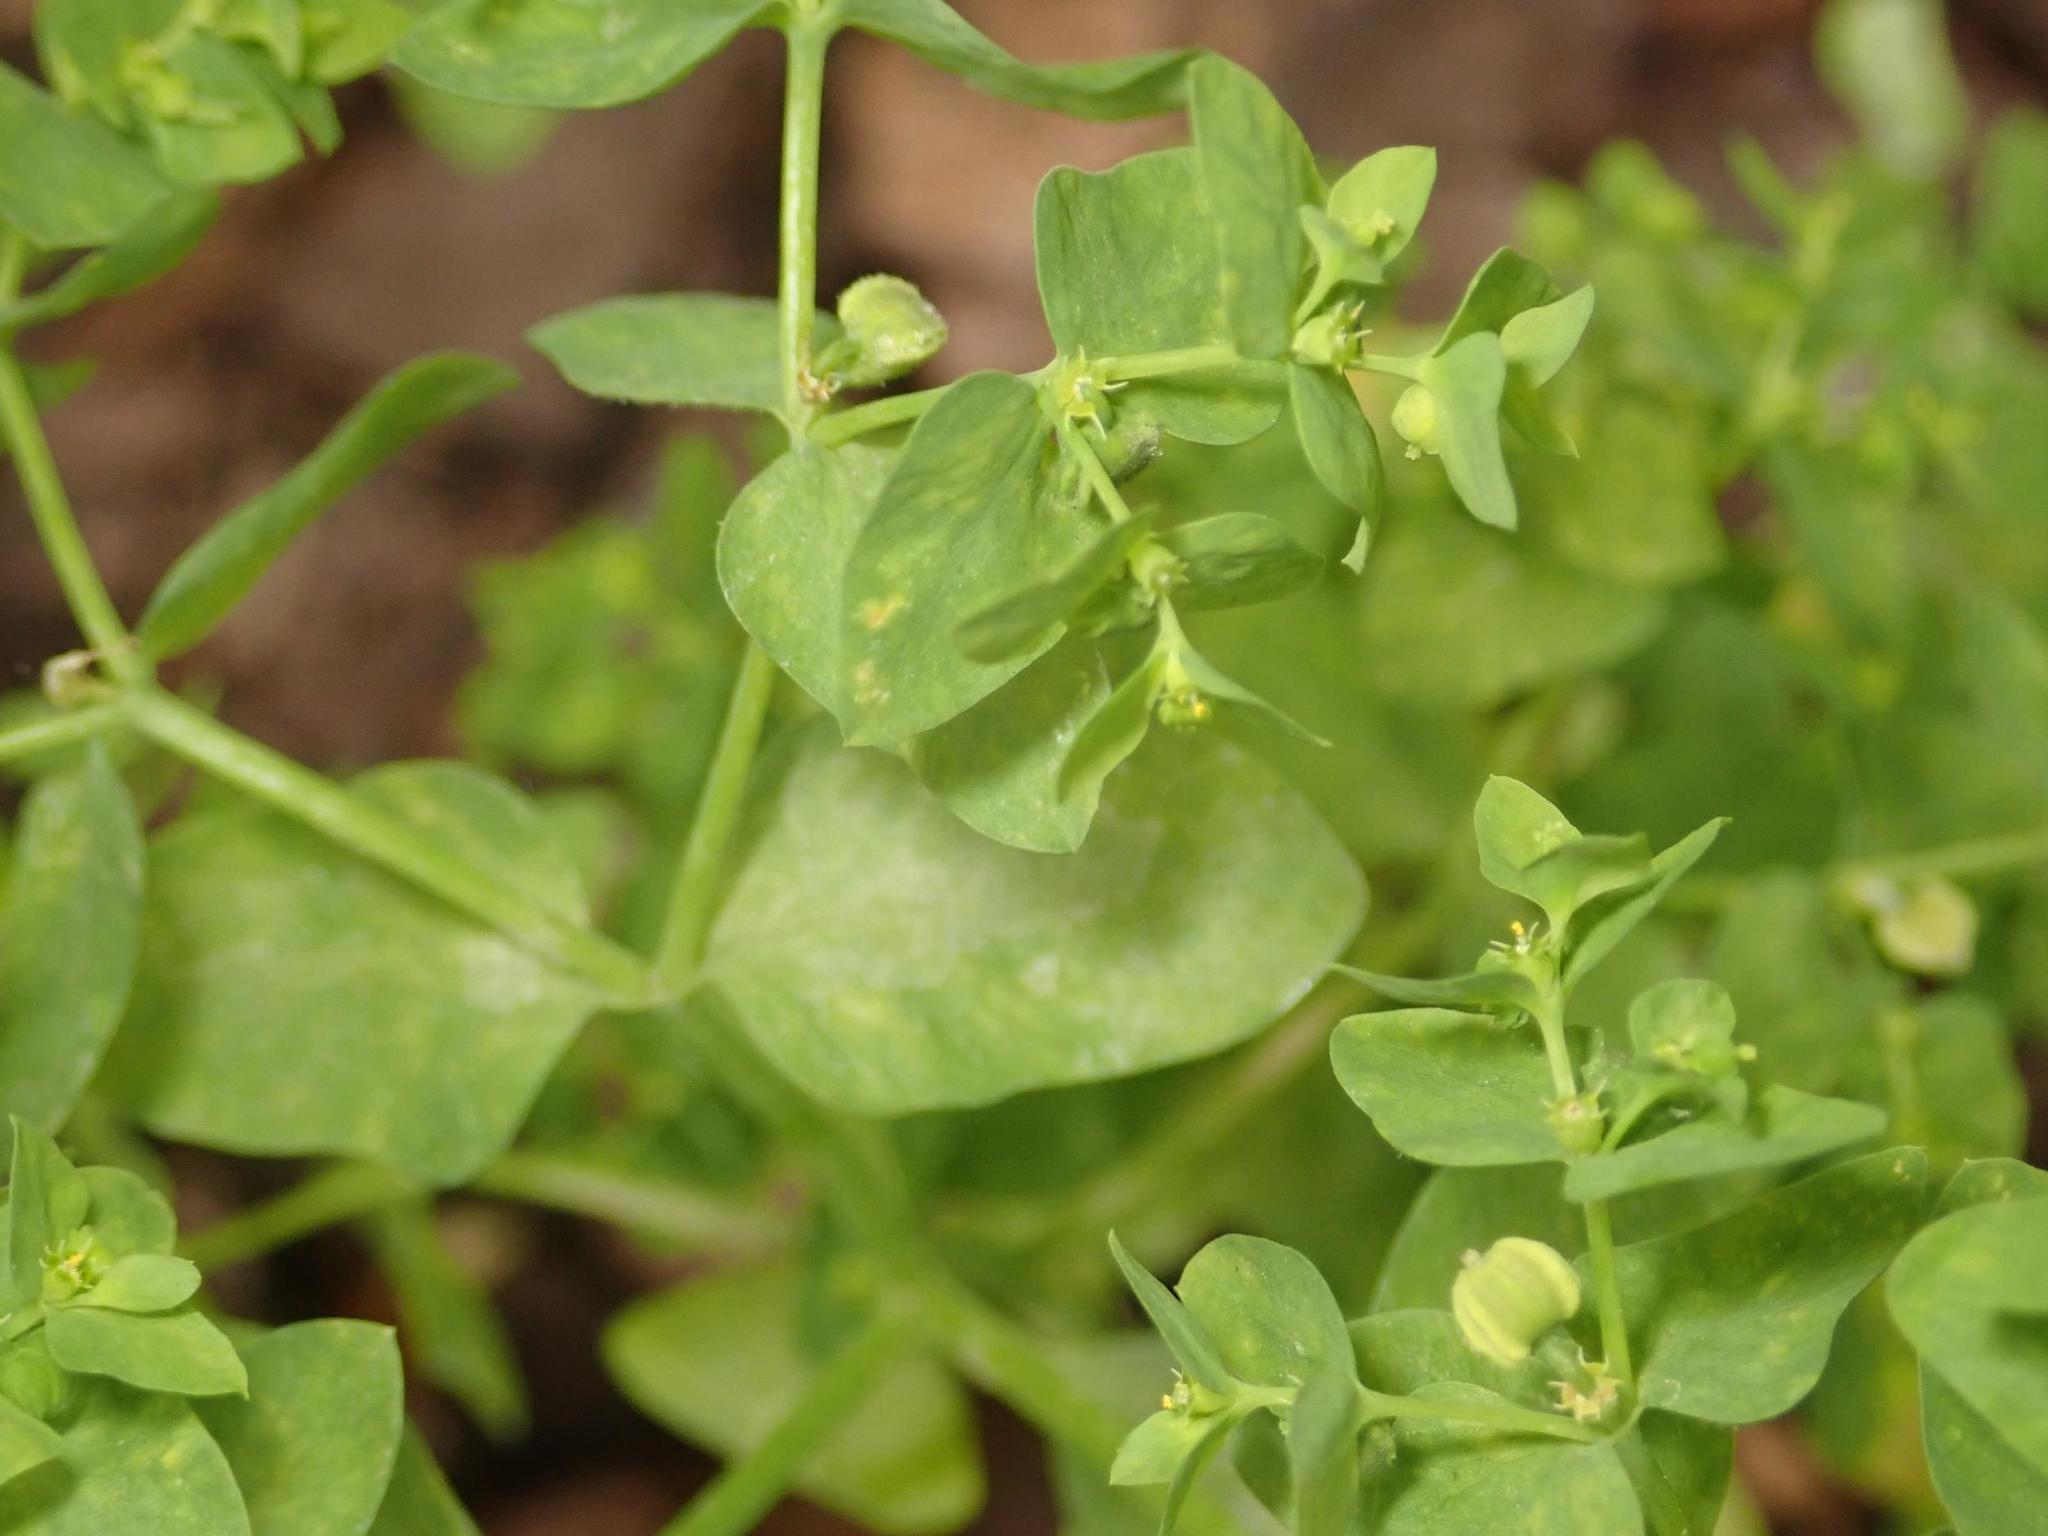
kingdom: Plantae
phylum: Tracheophyta
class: Magnoliopsida
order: Malpighiales
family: Euphorbiaceae
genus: Euphorbia
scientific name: Euphorbia peplus
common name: Petty spurge
